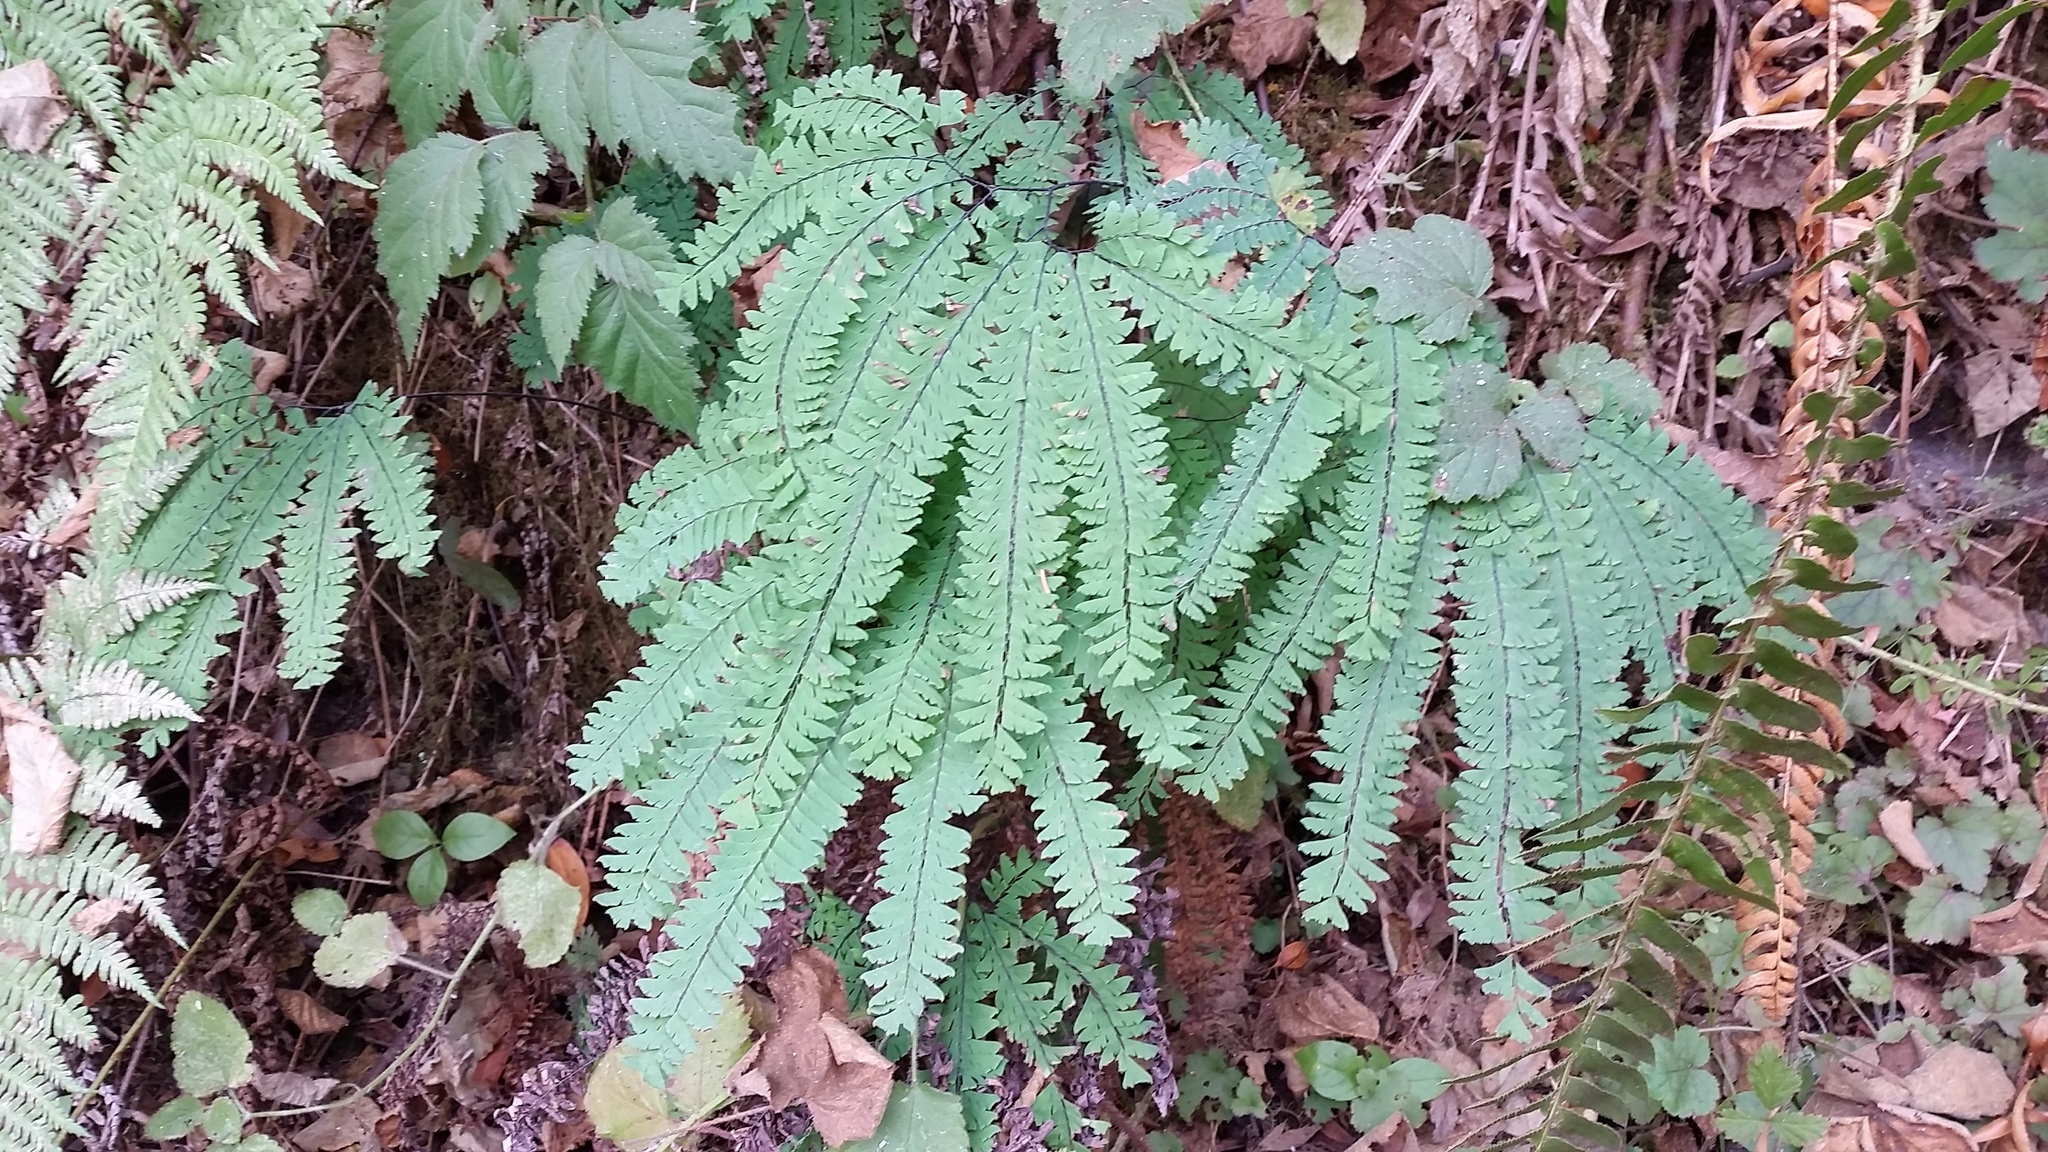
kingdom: Plantae
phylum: Tracheophyta
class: Polypodiopsida
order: Polypodiales
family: Pteridaceae
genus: Adiantum
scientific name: Adiantum aleuticum
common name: Aleutian maidenhair fern
